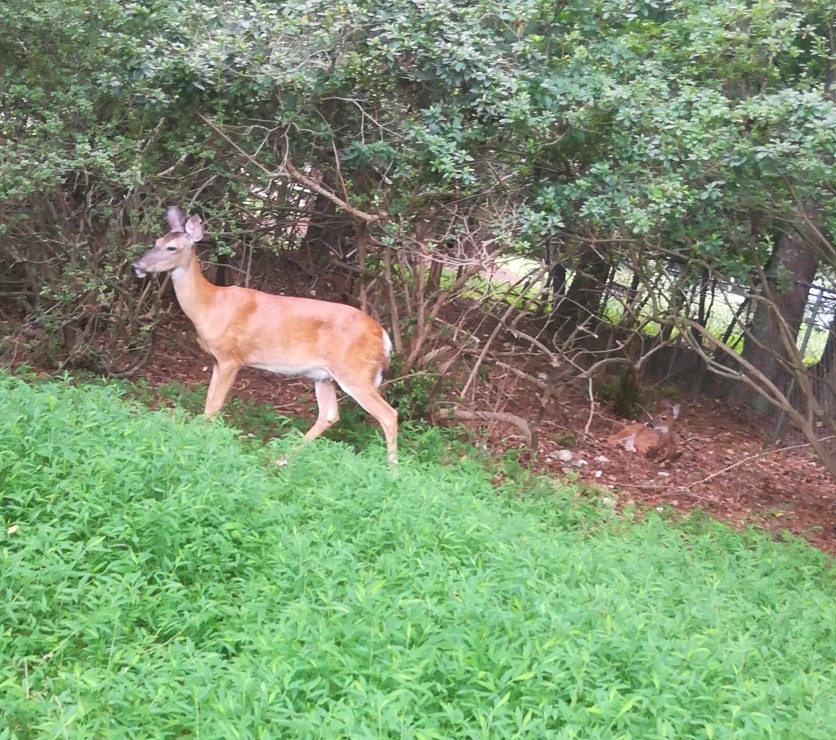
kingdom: Animalia
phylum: Chordata
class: Mammalia
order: Artiodactyla
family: Cervidae
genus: Odocoileus
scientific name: Odocoileus virginianus
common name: White-tailed deer
